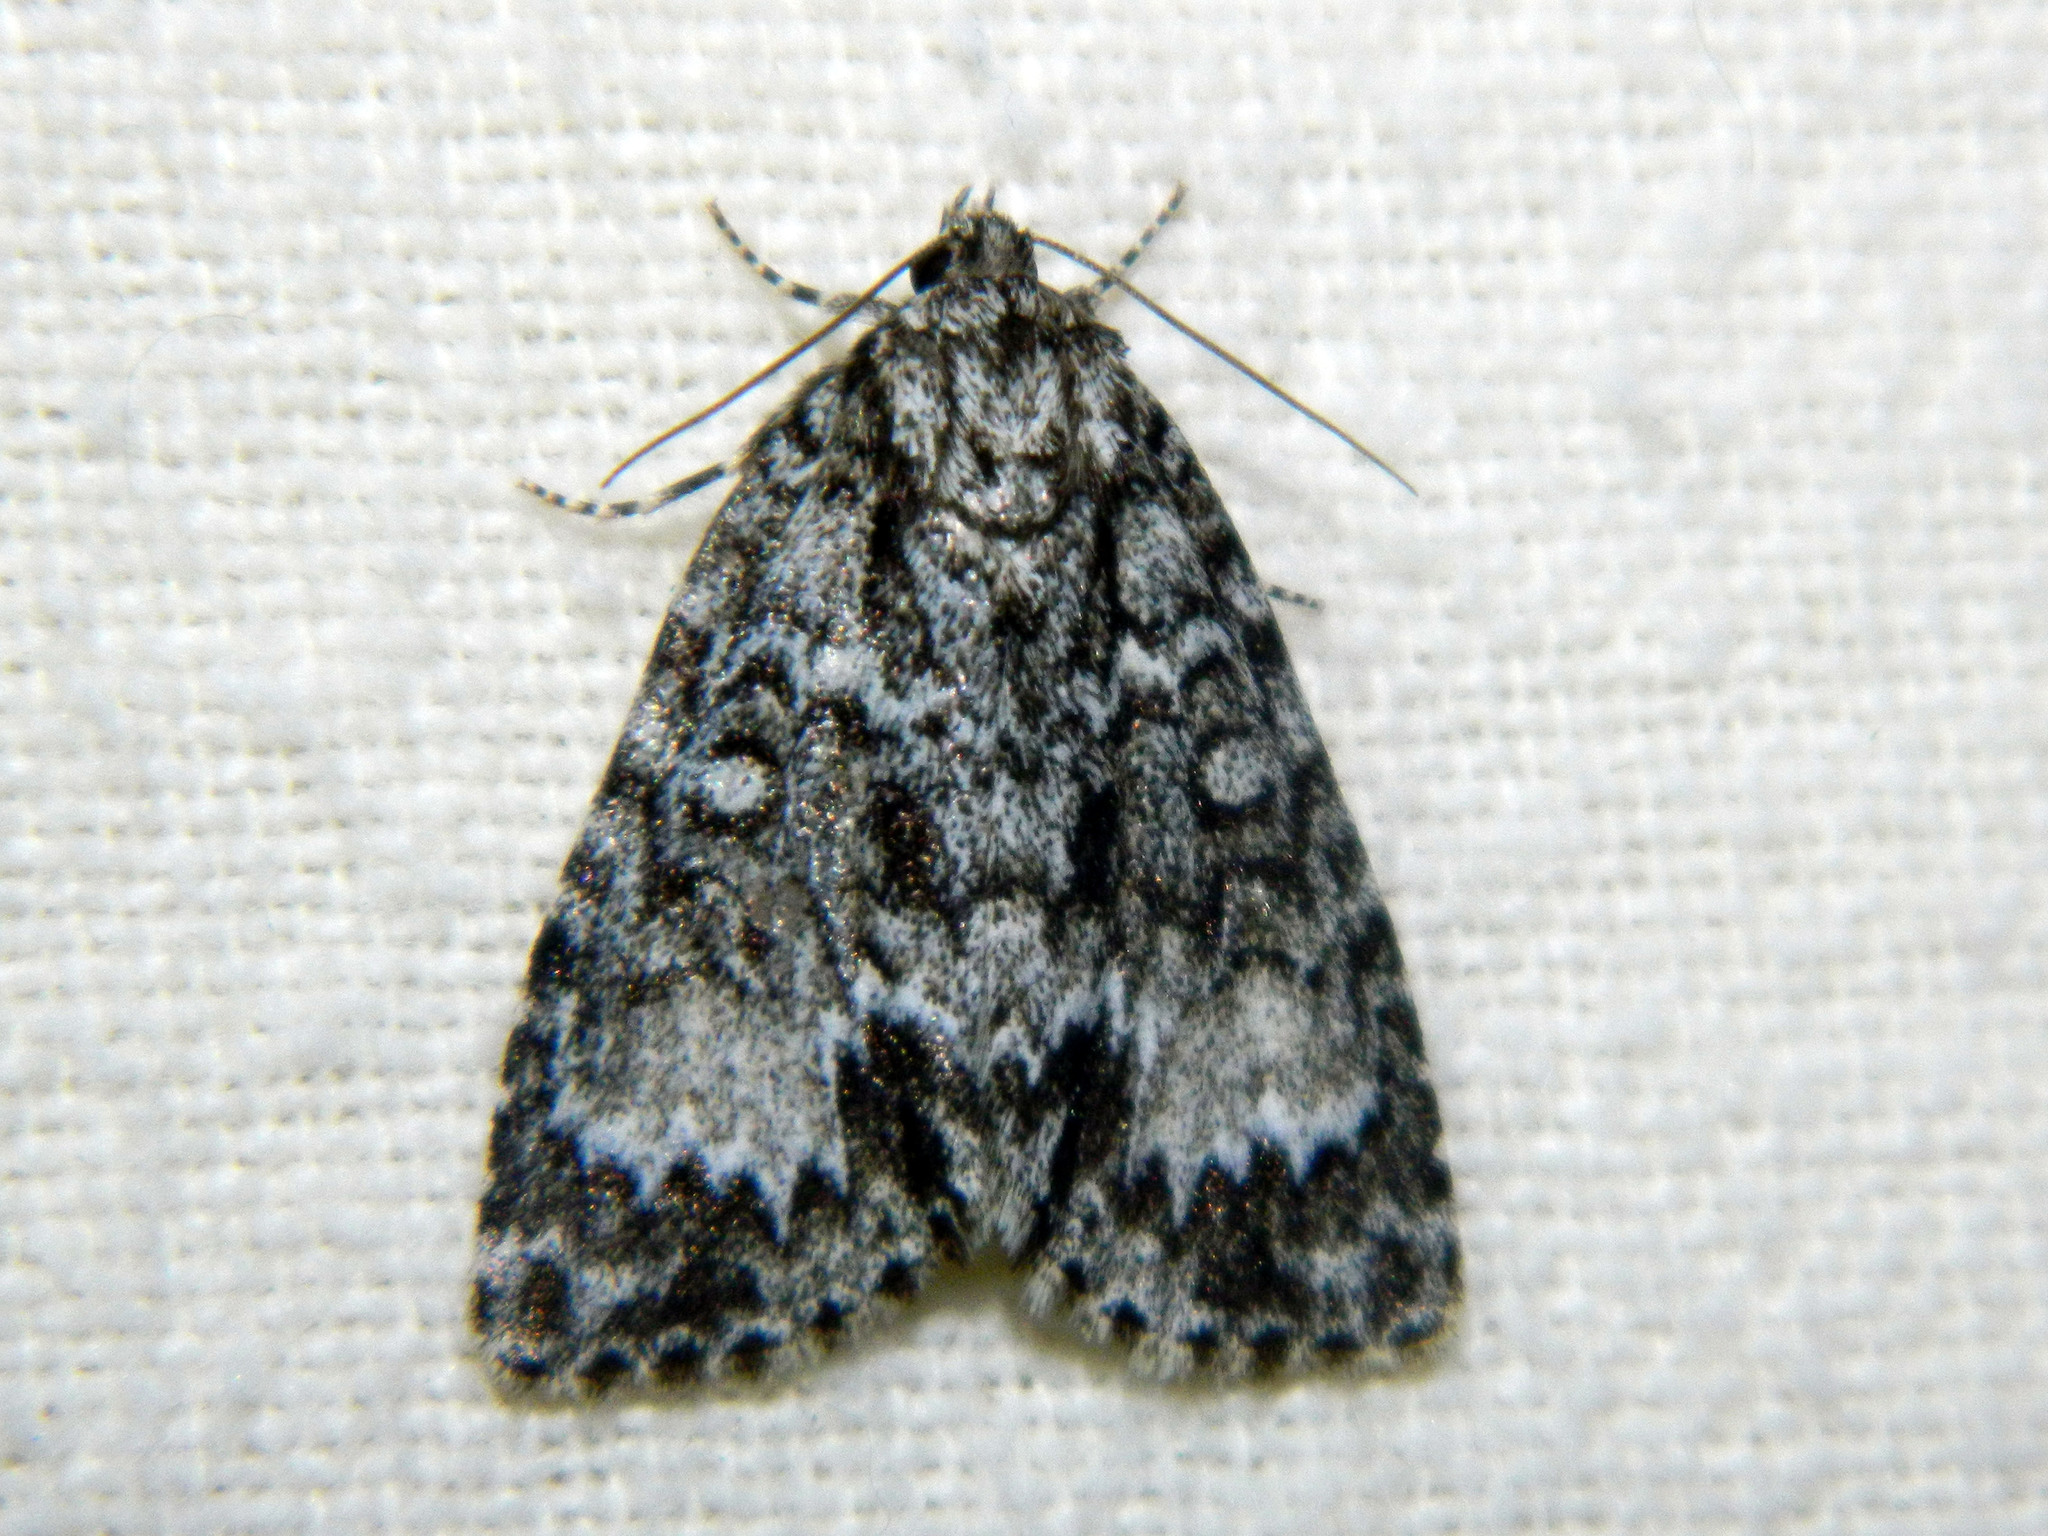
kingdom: Animalia
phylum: Arthropoda
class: Insecta
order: Lepidoptera
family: Noctuidae
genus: Acronicta
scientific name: Acronicta fragilis
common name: Fragile dagger
